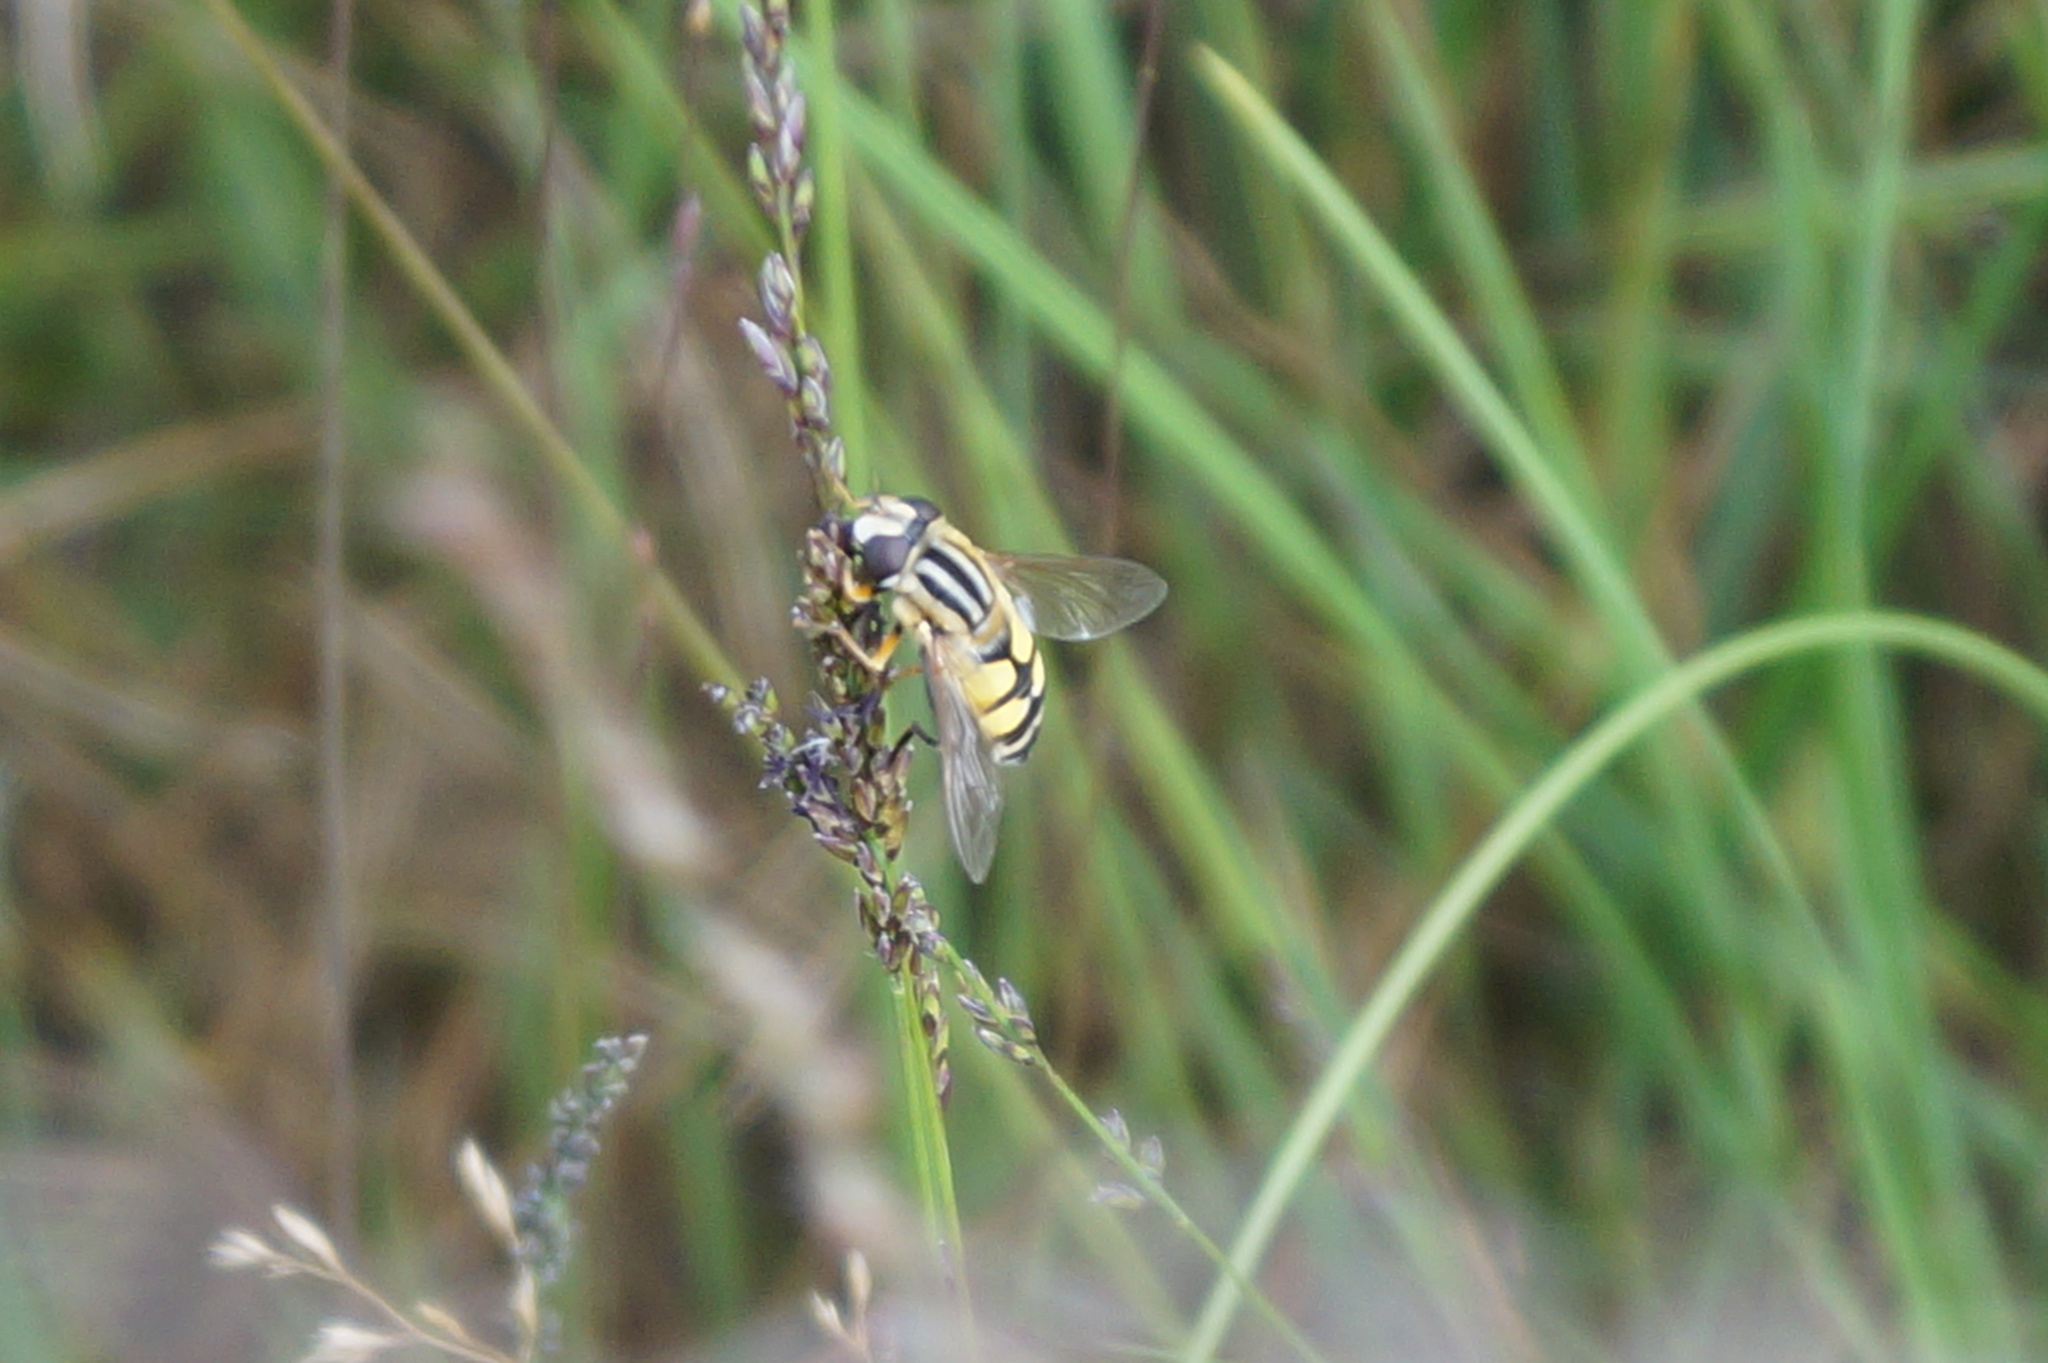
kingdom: Animalia
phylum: Arthropoda
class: Insecta
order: Diptera
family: Syrphidae
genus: Helophilus
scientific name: Helophilus trivittatus
